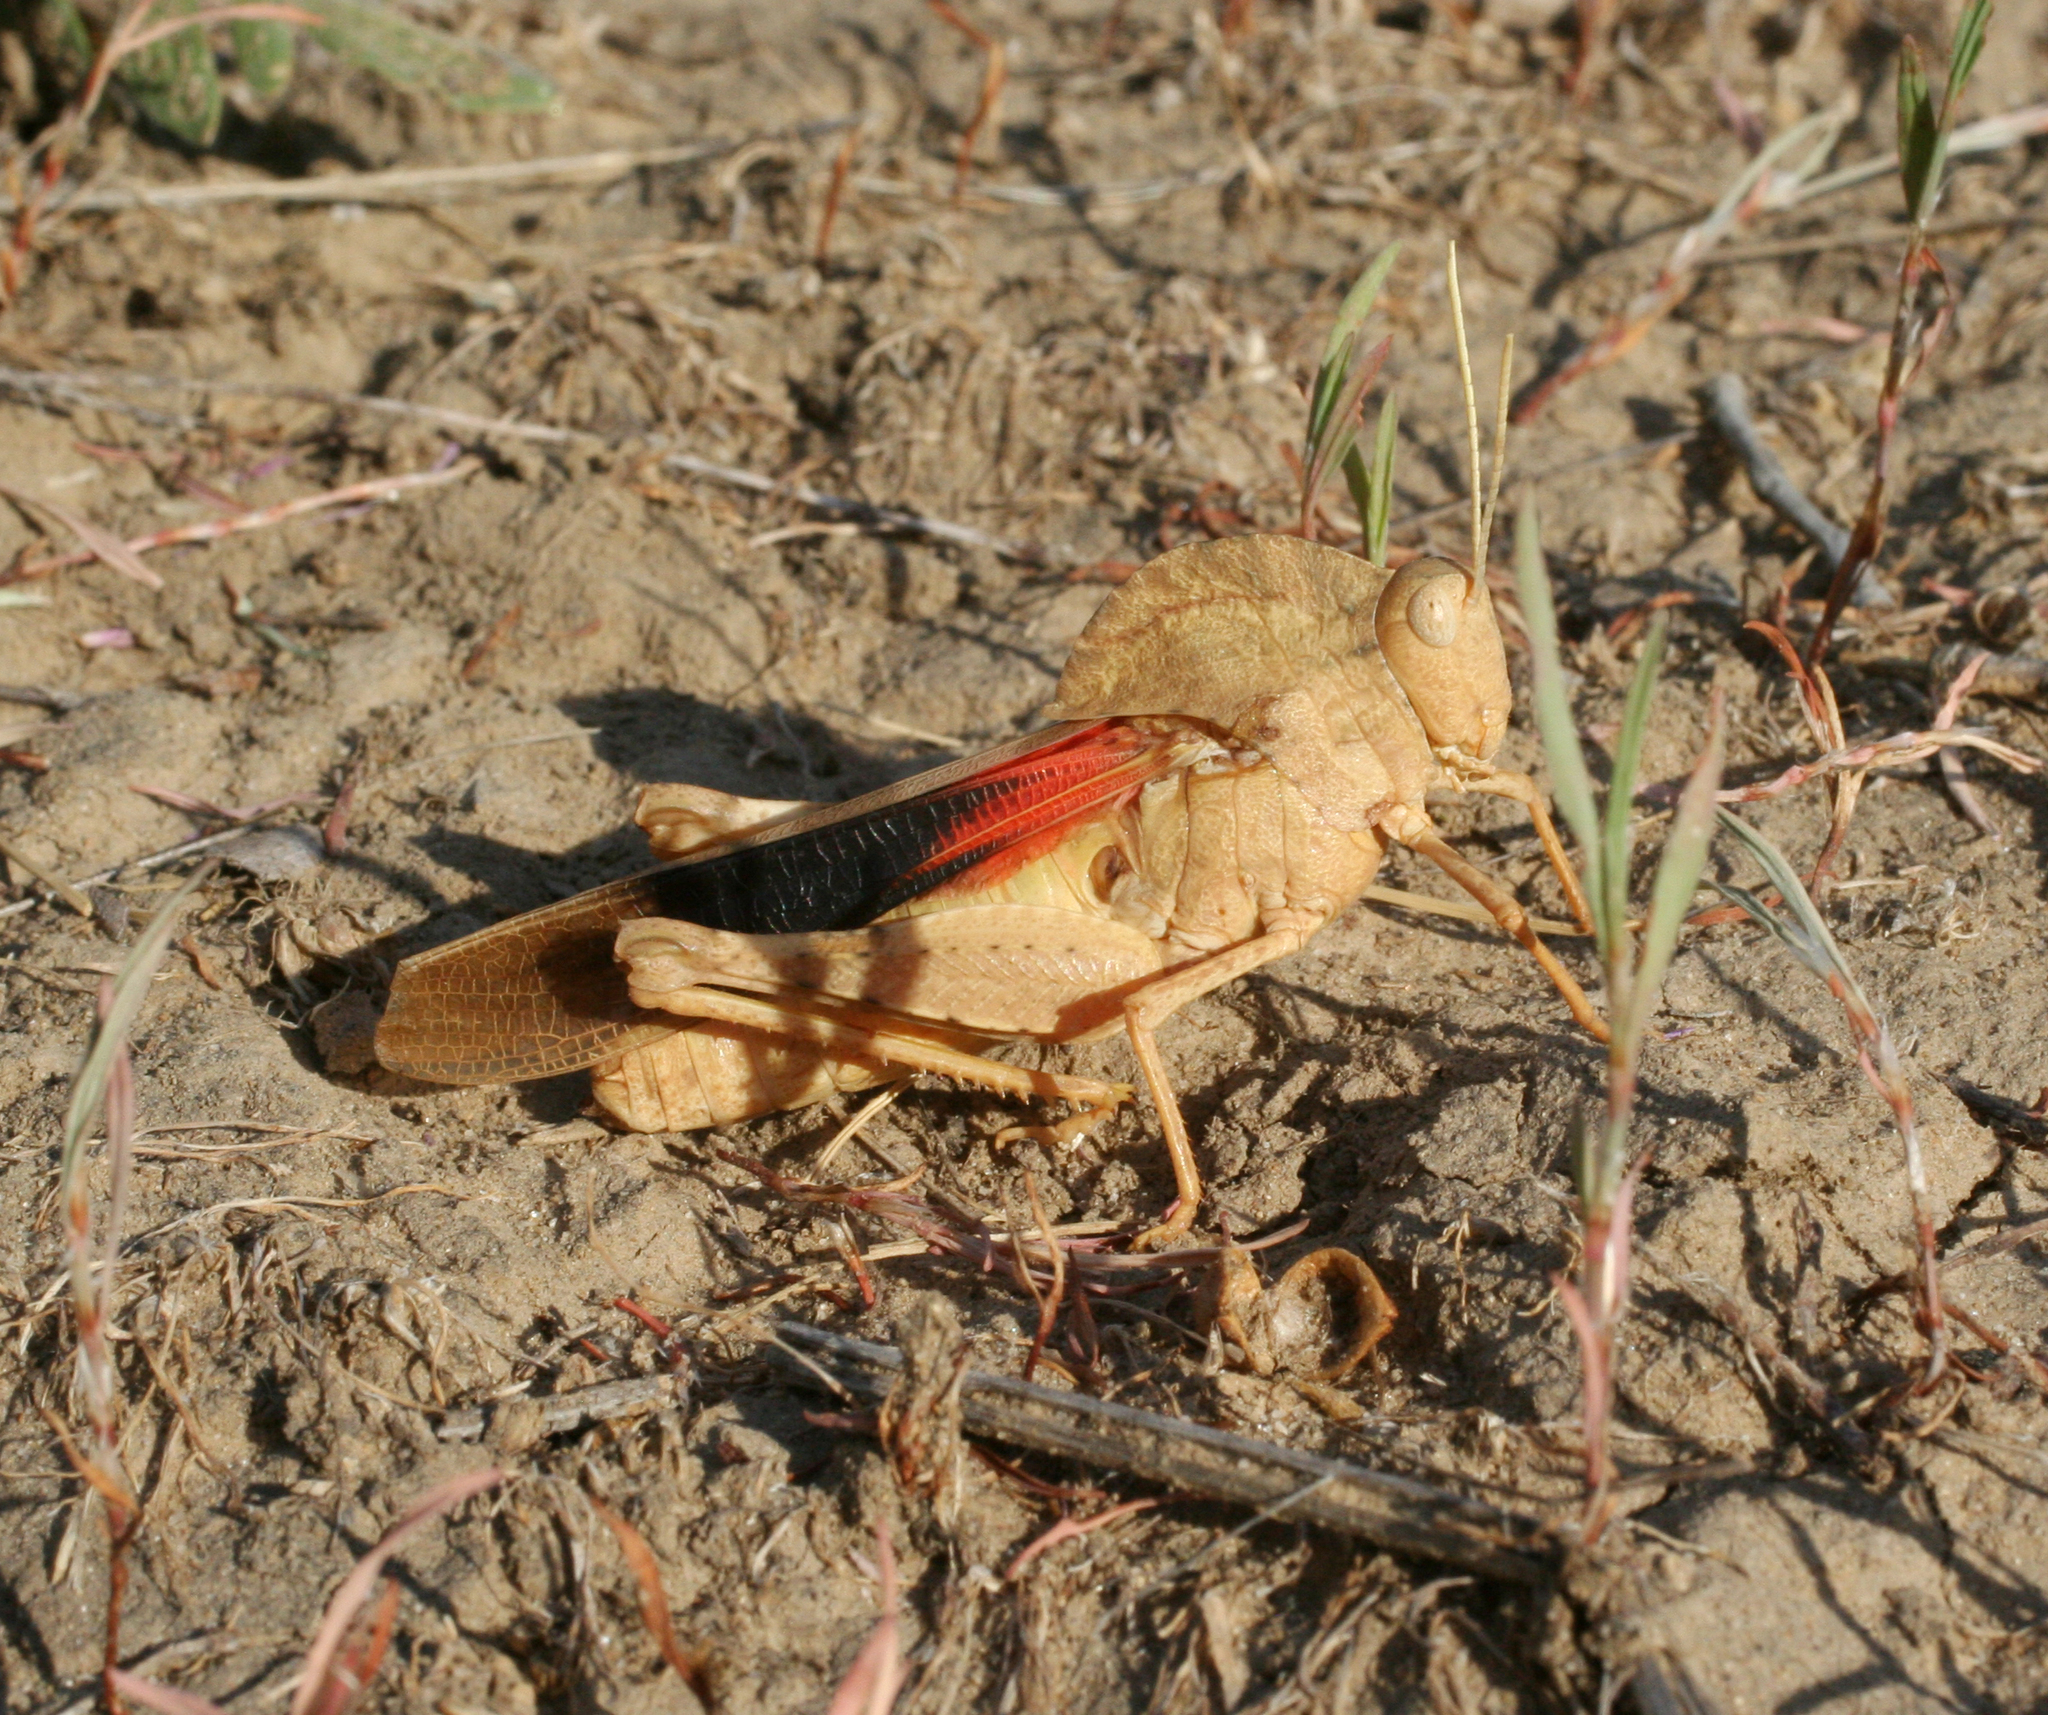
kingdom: Animalia
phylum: Arthropoda
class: Insecta
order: Orthoptera
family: Acrididae
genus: Pyrgodera
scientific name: Pyrgodera armata
